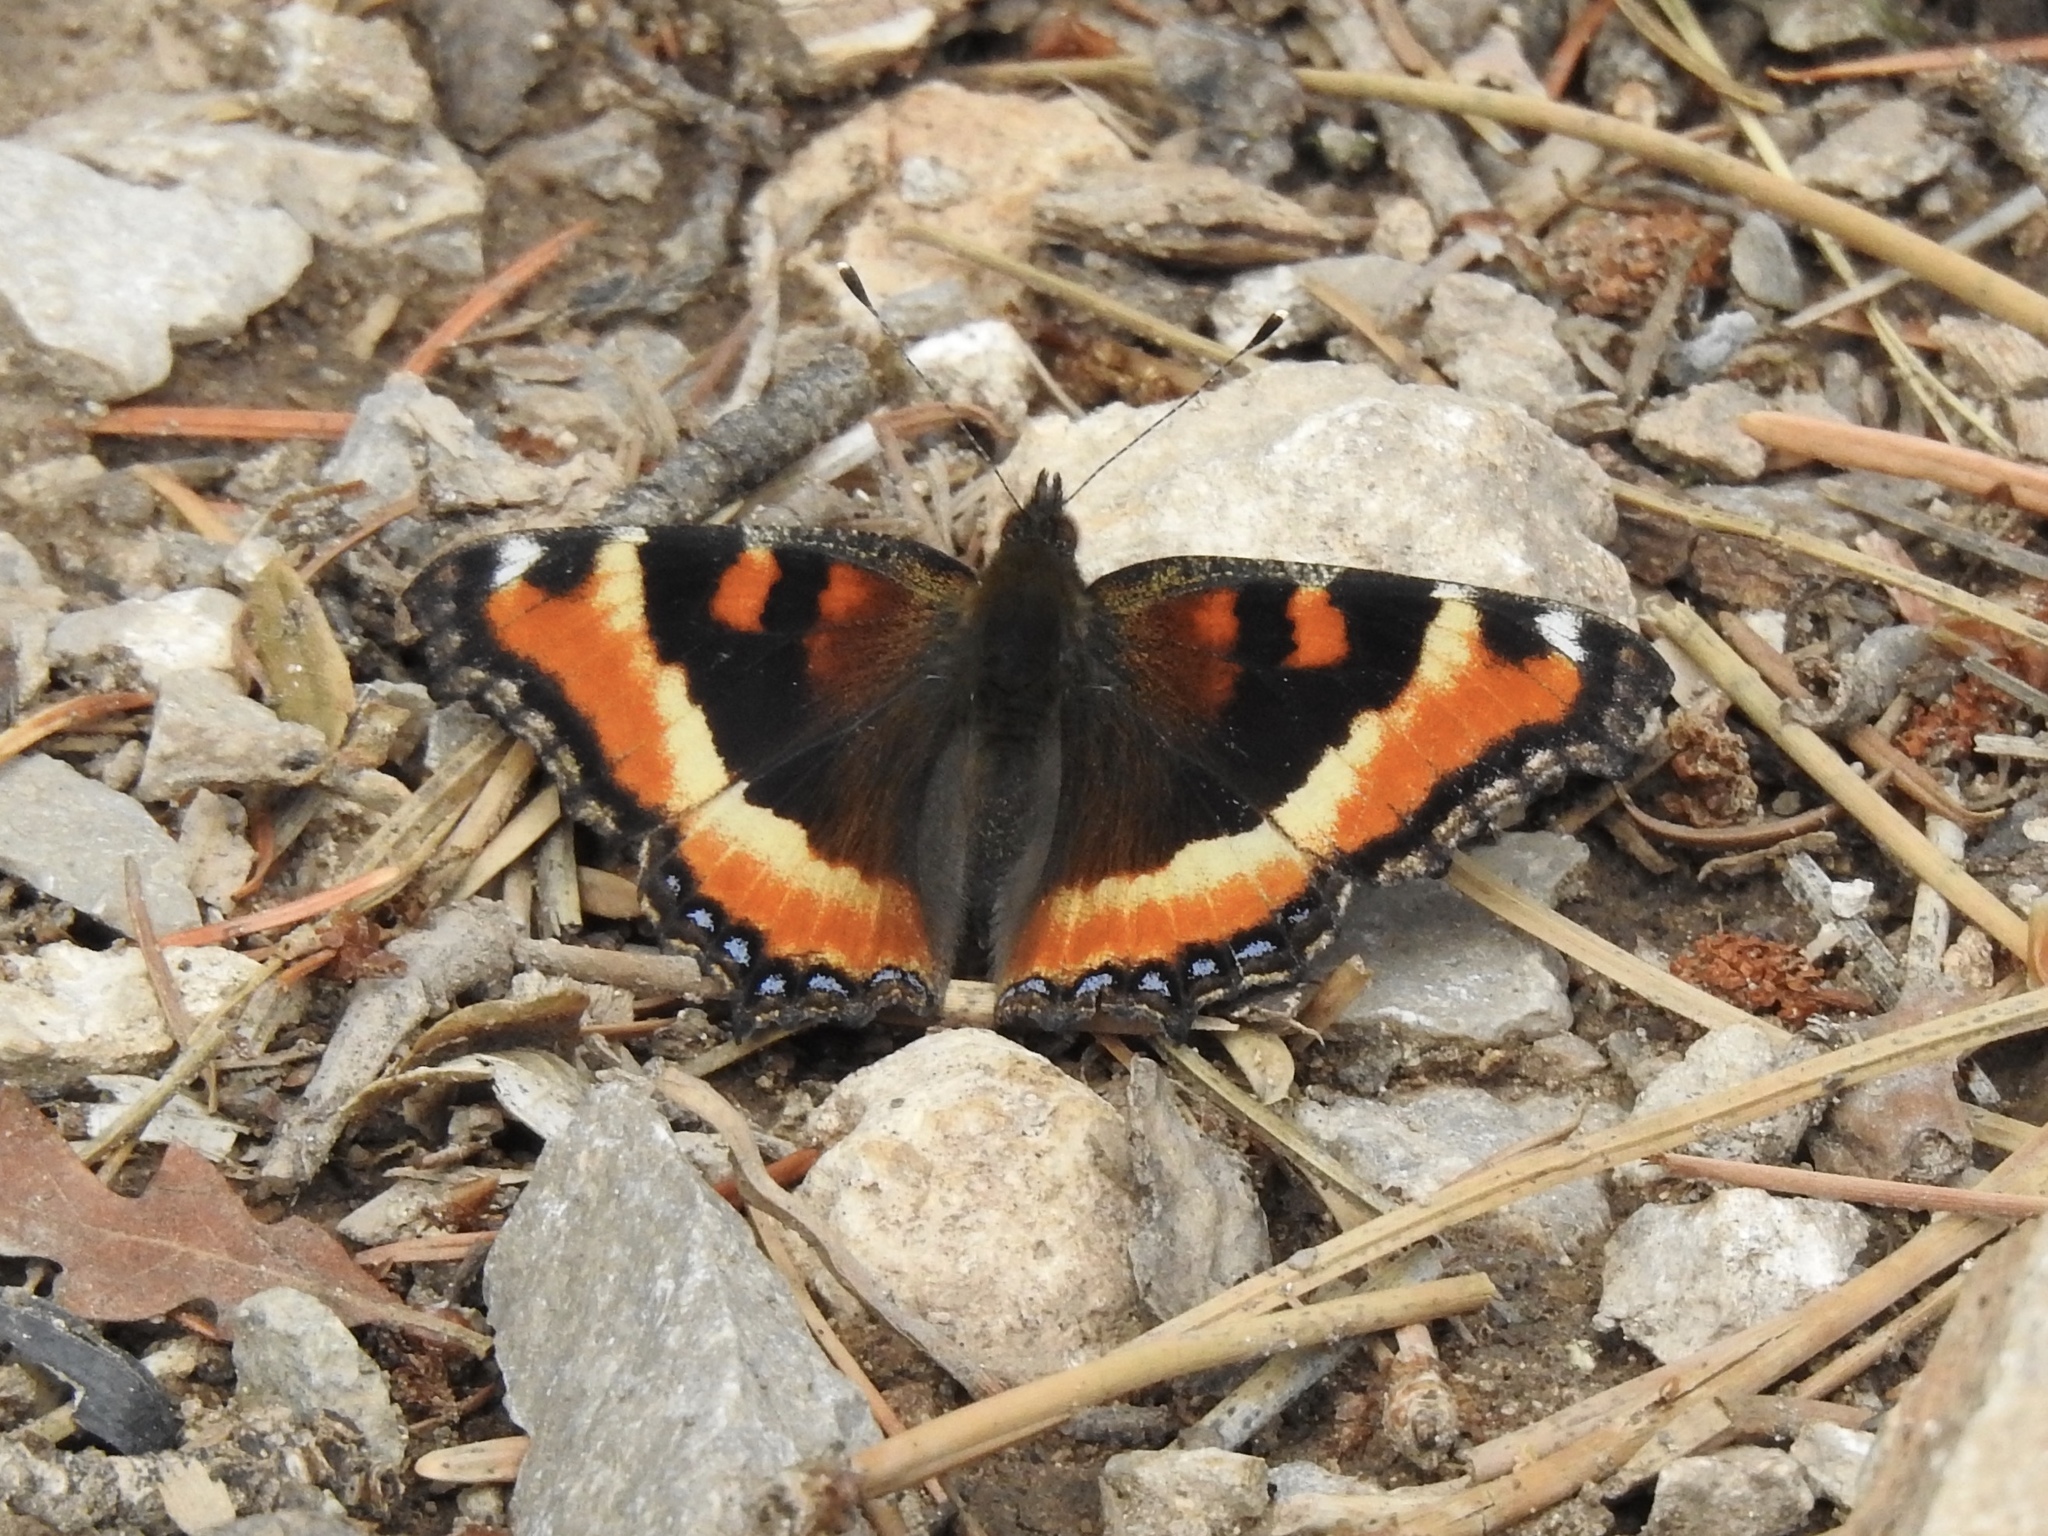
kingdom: Animalia
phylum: Arthropoda
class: Insecta
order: Lepidoptera
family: Nymphalidae
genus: Aglais
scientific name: Aglais milberti
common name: Milbert's tortoiseshell
